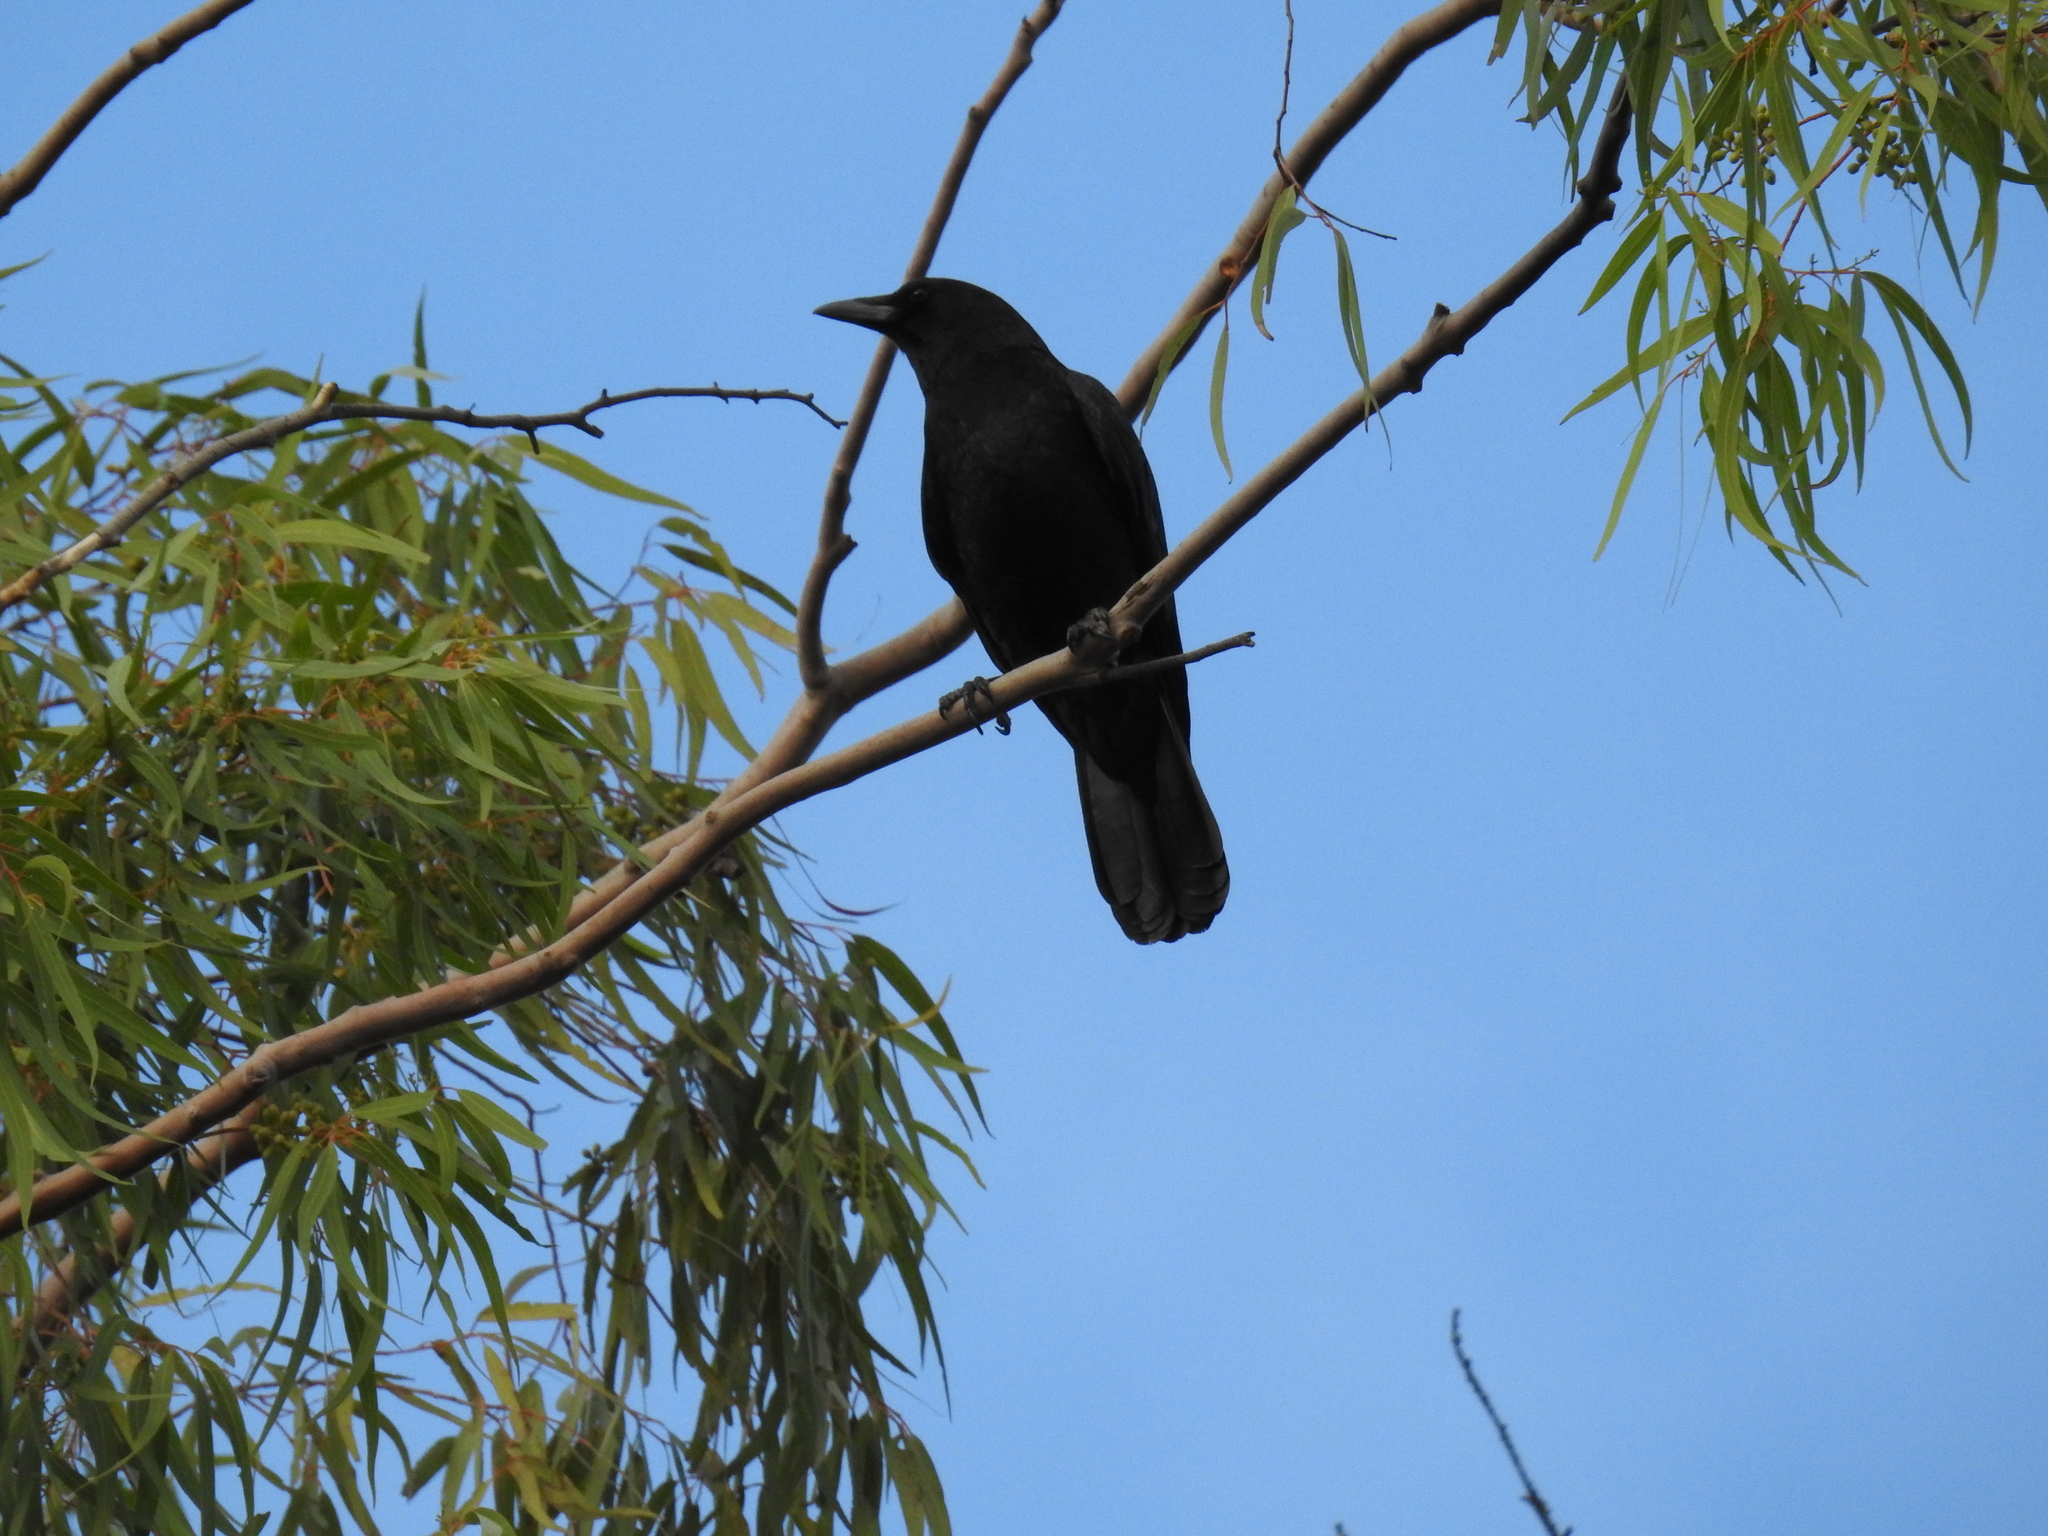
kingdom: Animalia
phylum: Chordata
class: Aves
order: Passeriformes
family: Corvidae
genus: Corvus
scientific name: Corvus brachyrhynchos
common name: American crow
